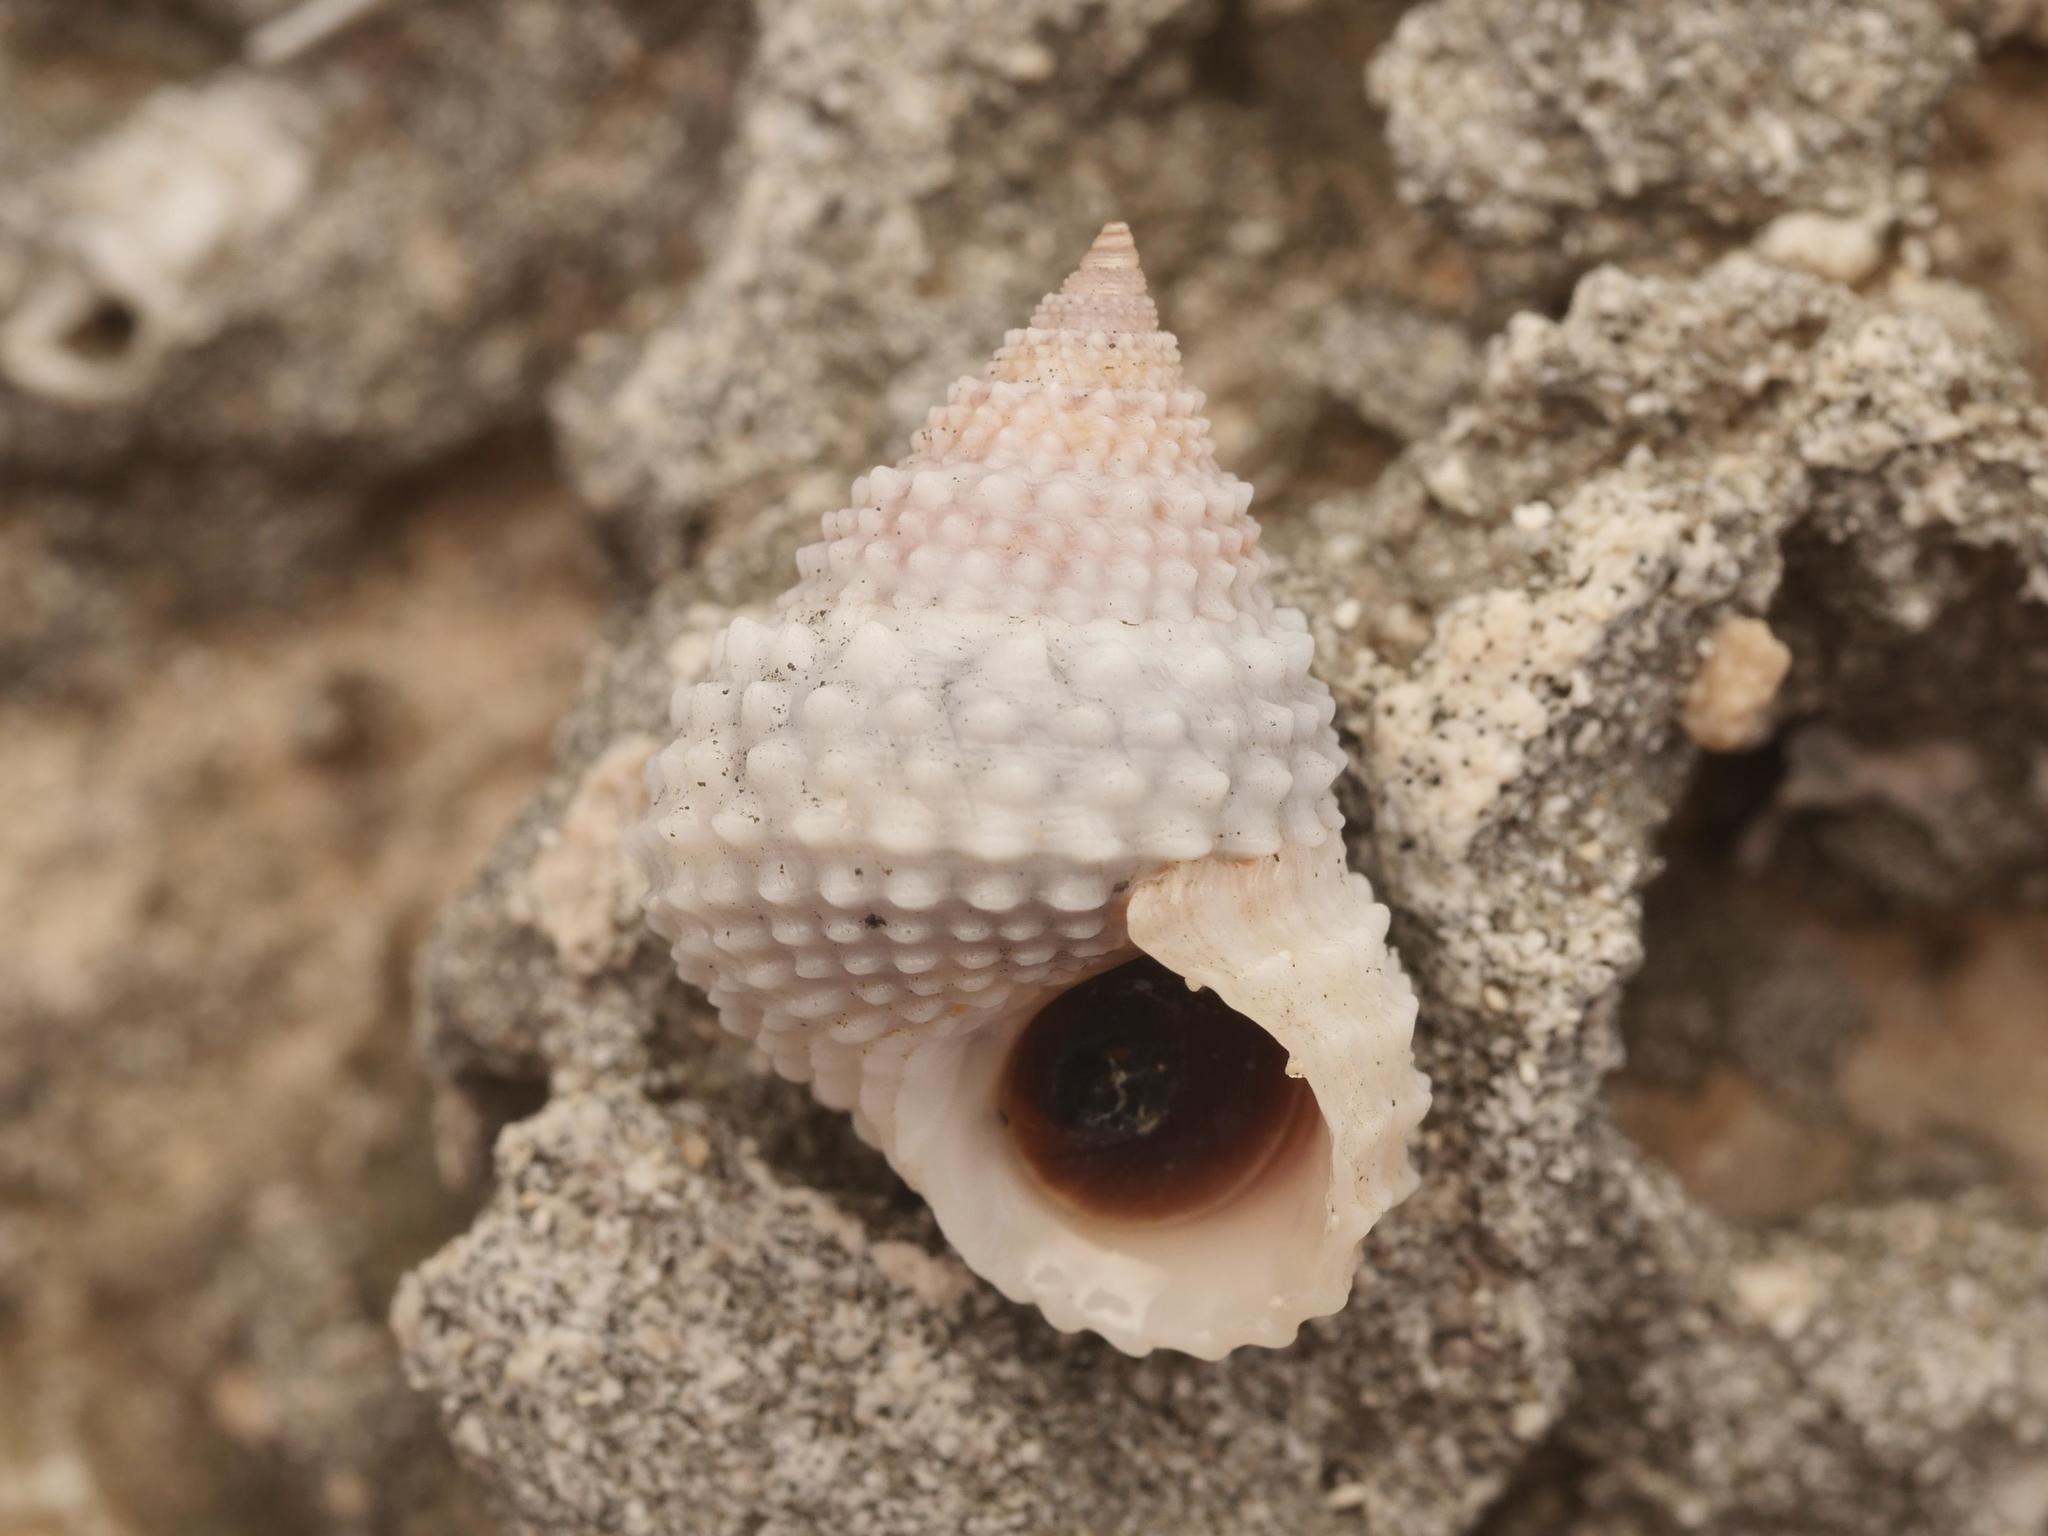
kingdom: Animalia
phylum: Mollusca
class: Gastropoda
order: Littorinimorpha
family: Littorinidae
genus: Cenchritis
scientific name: Cenchritis muricatus
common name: Beaded periwinkle
